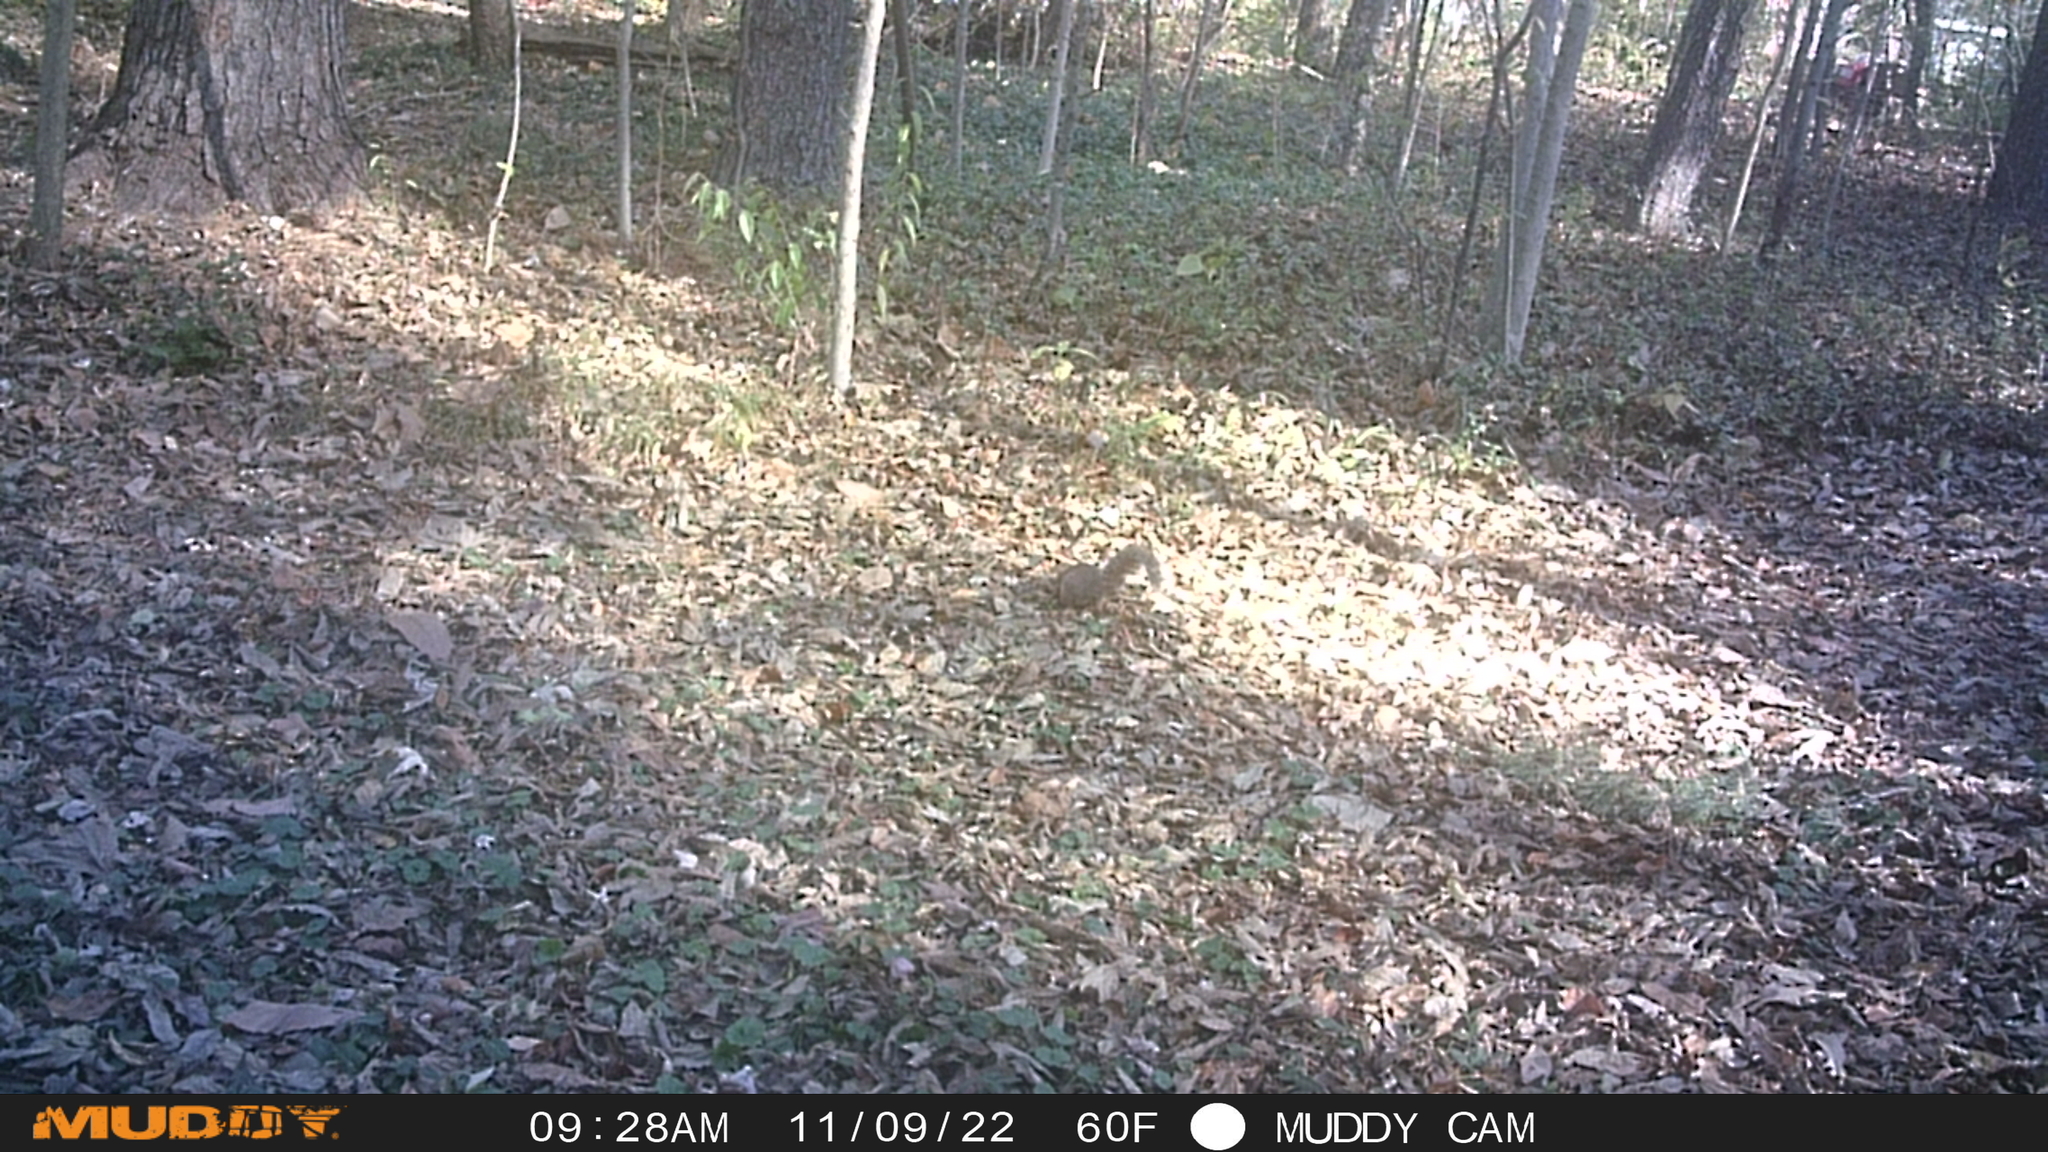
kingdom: Animalia
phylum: Chordata
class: Mammalia
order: Rodentia
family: Sciuridae
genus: Sciurus
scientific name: Sciurus carolinensis
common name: Eastern gray squirrel
